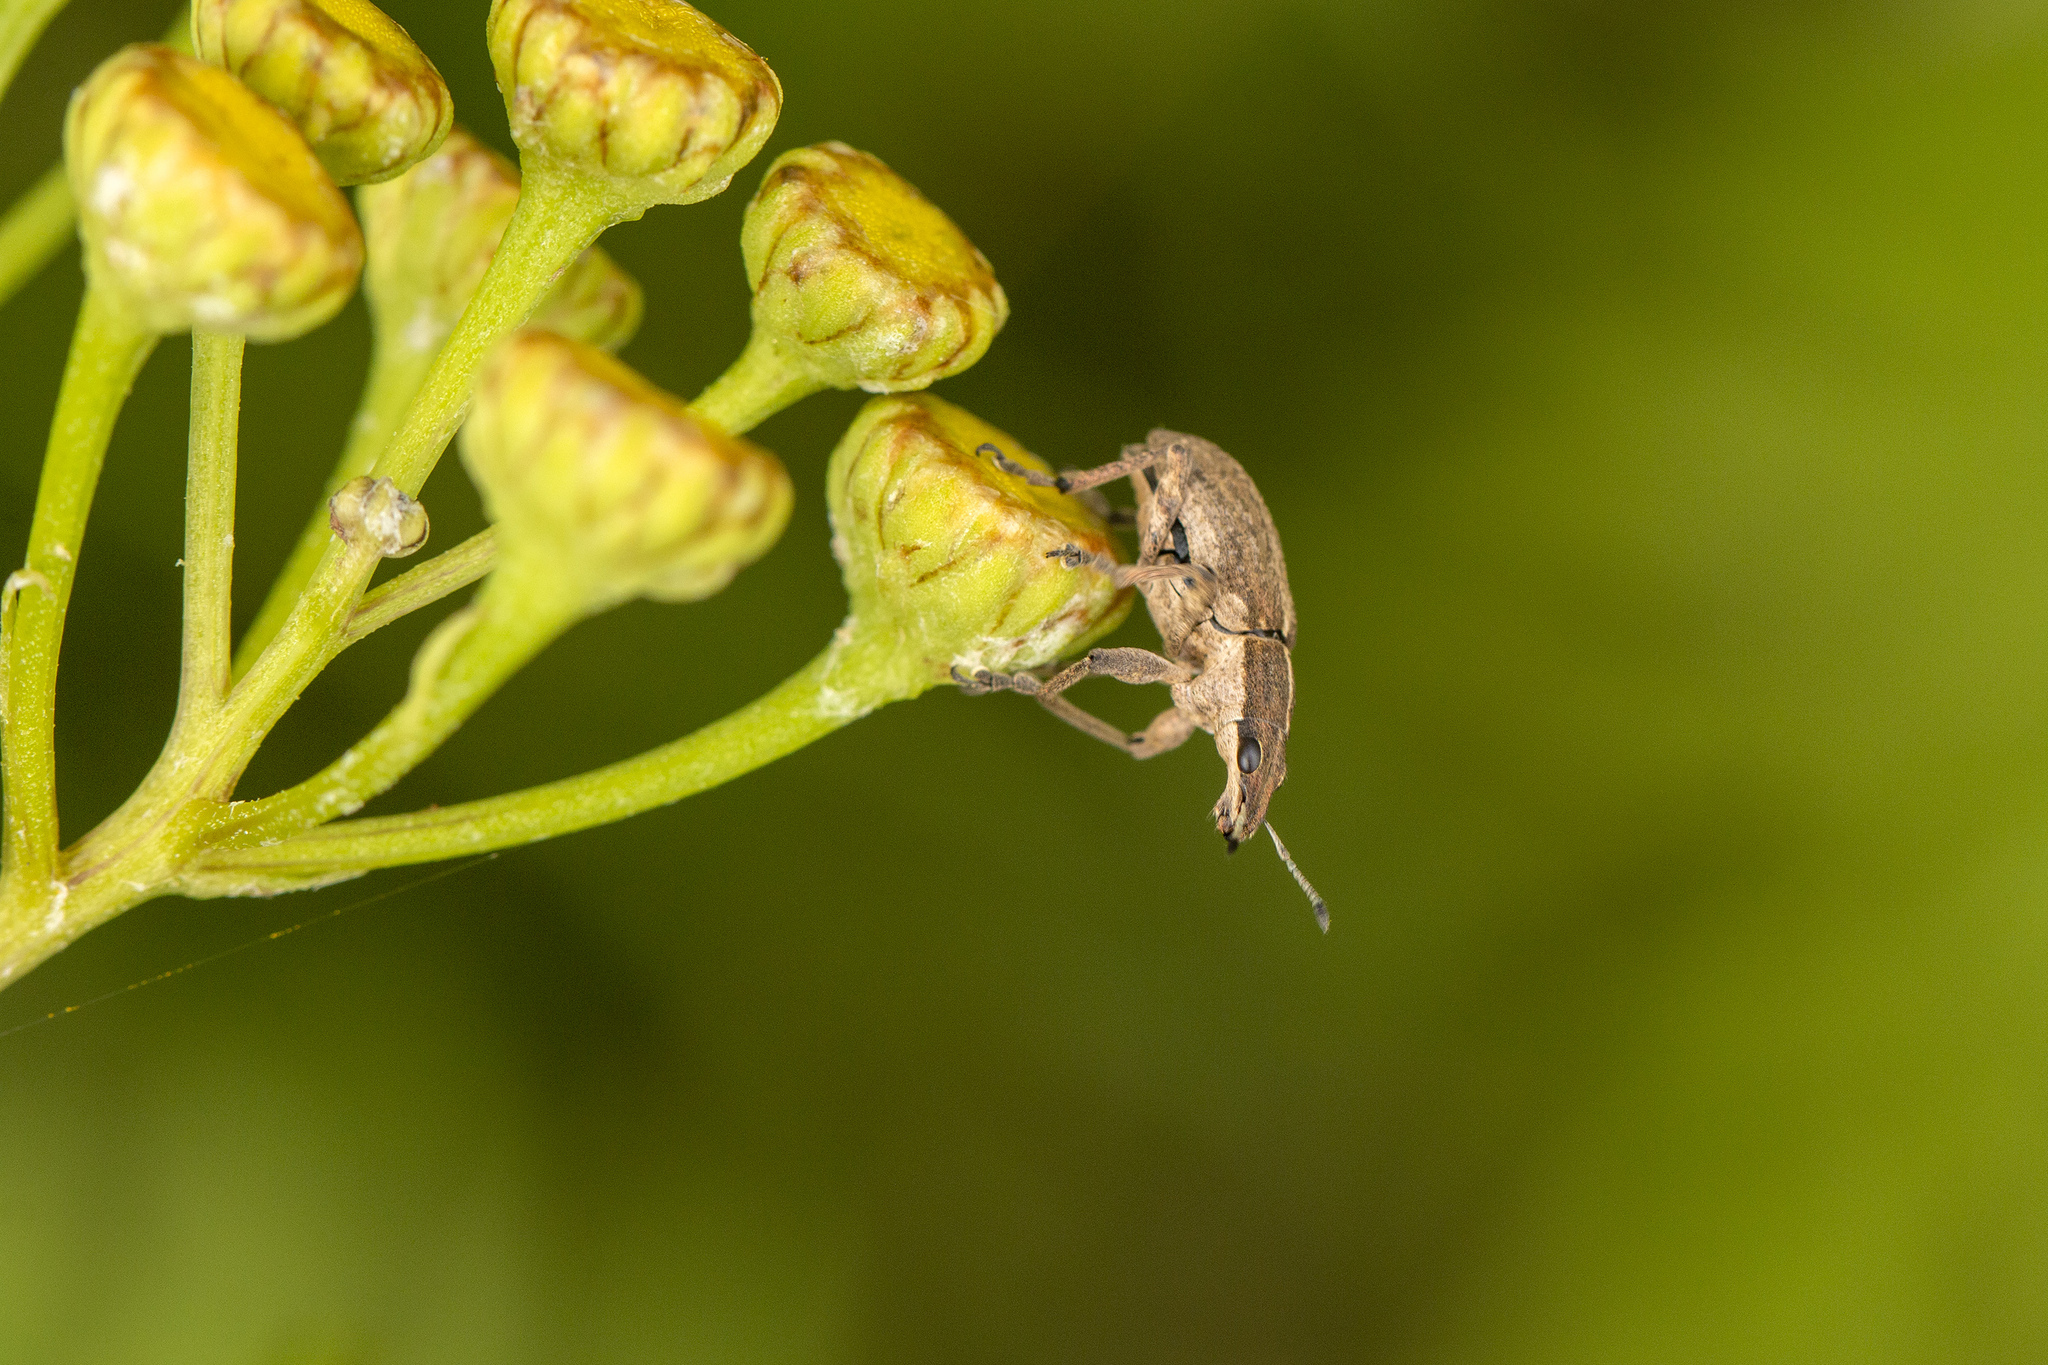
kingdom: Animalia
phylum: Arthropoda
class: Insecta
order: Coleoptera
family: Curculionidae
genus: Charagmus
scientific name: Charagmus gressorius
